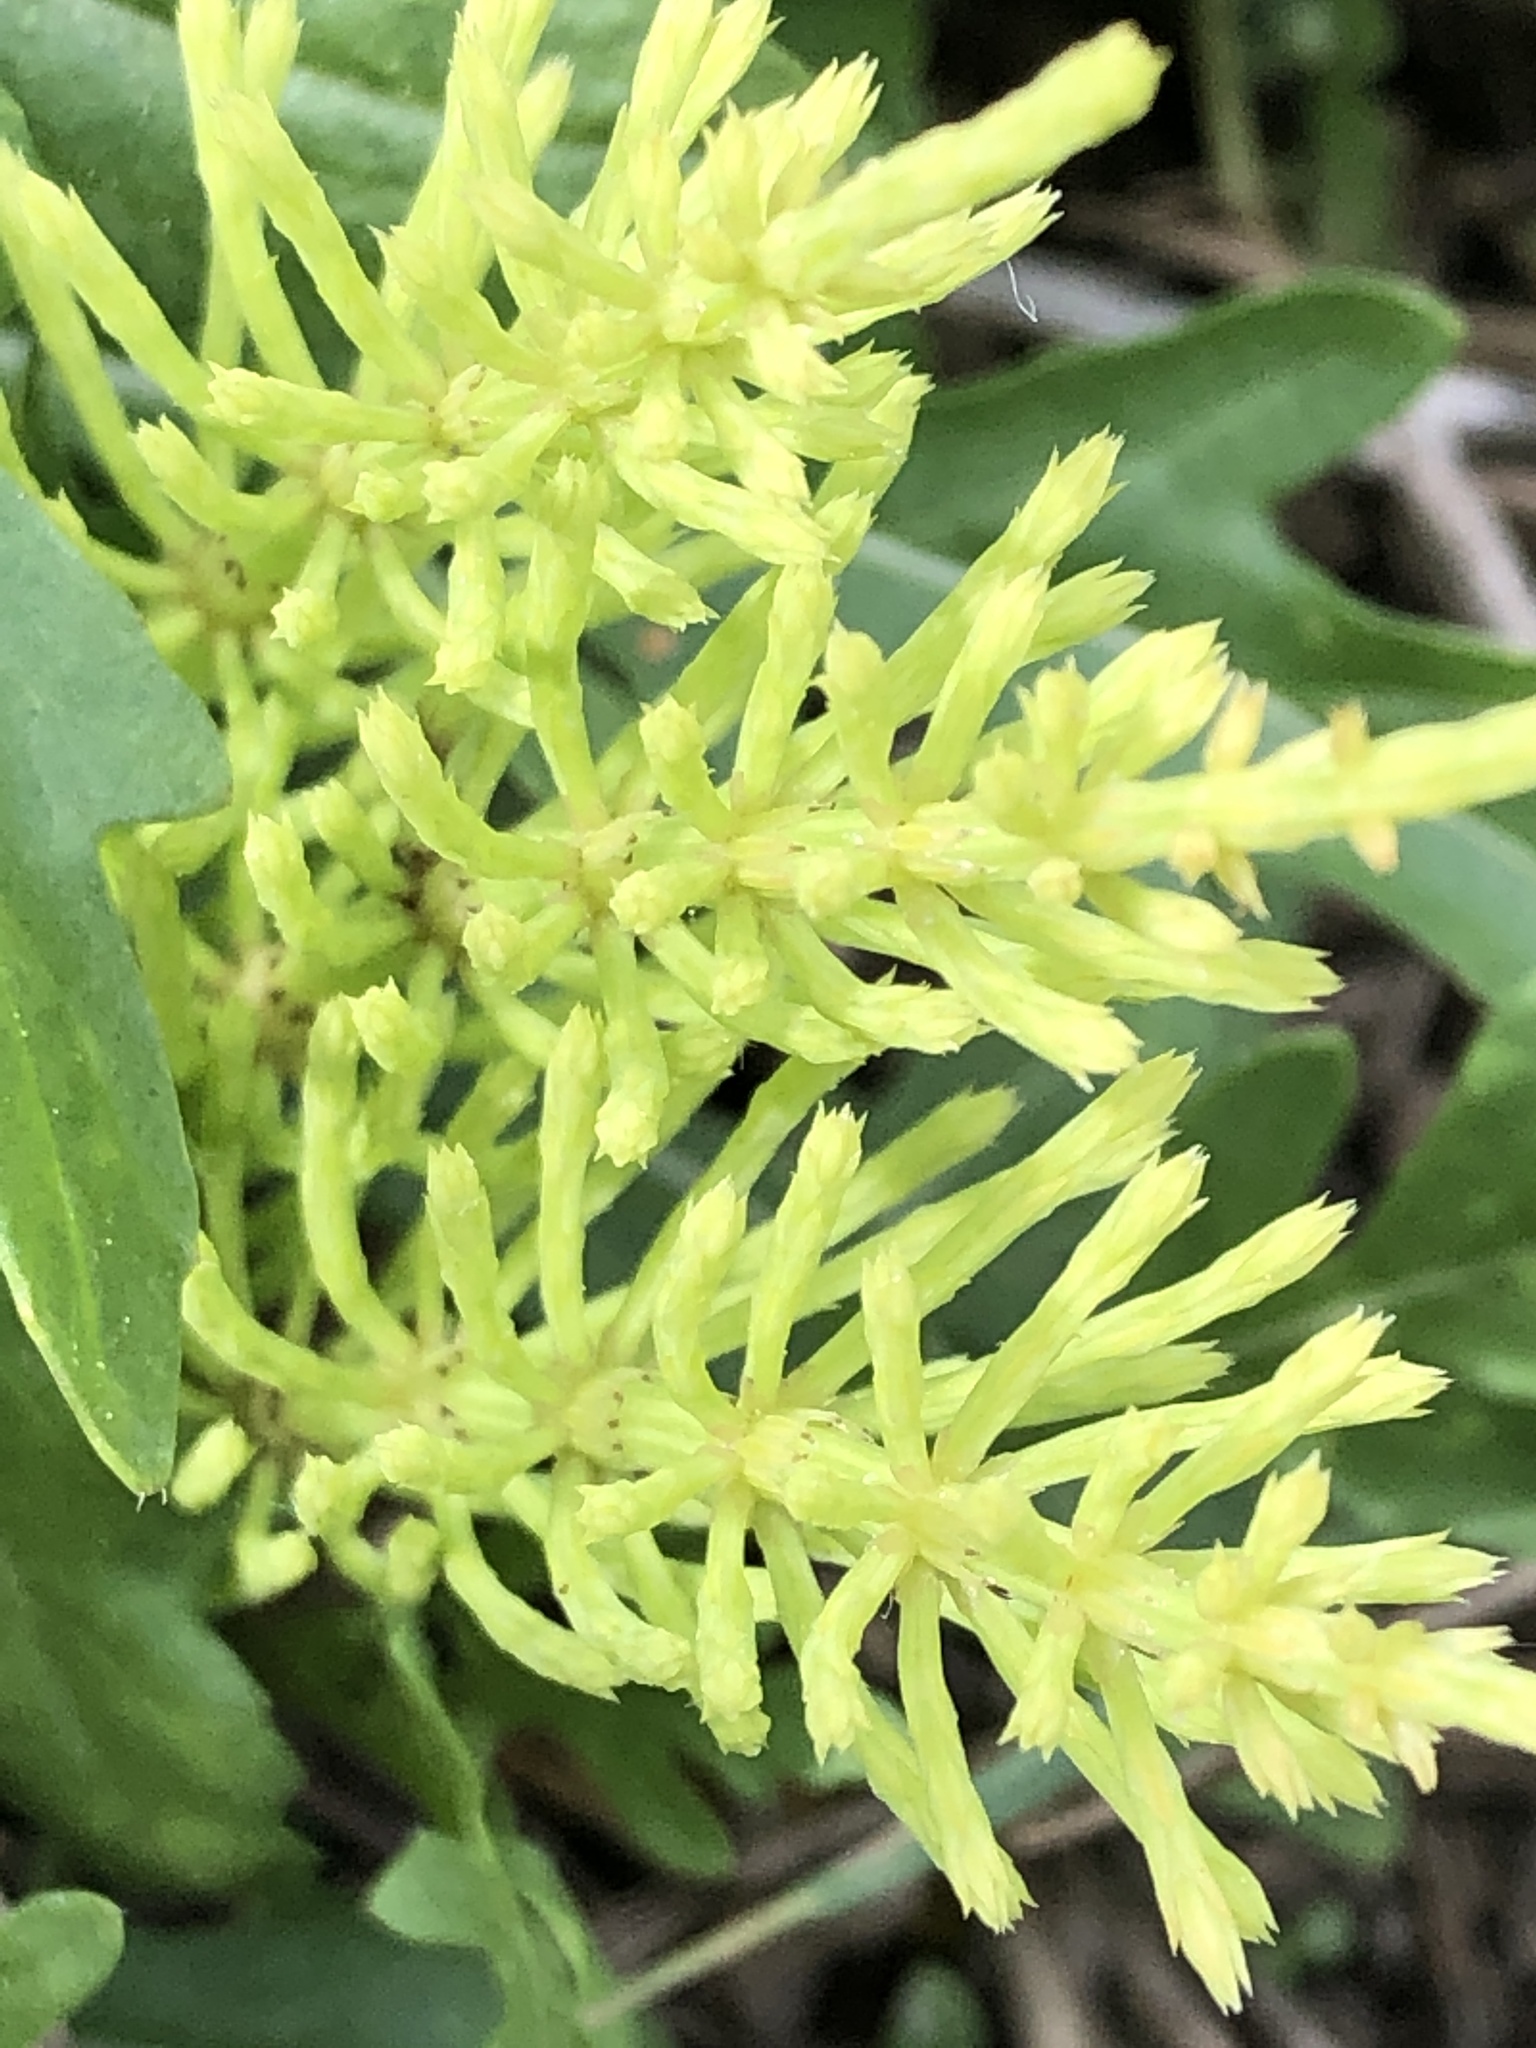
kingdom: Plantae
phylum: Tracheophyta
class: Polypodiopsida
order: Equisetales
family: Equisetaceae
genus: Equisetum
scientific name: Equisetum arvense
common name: Field horsetail
